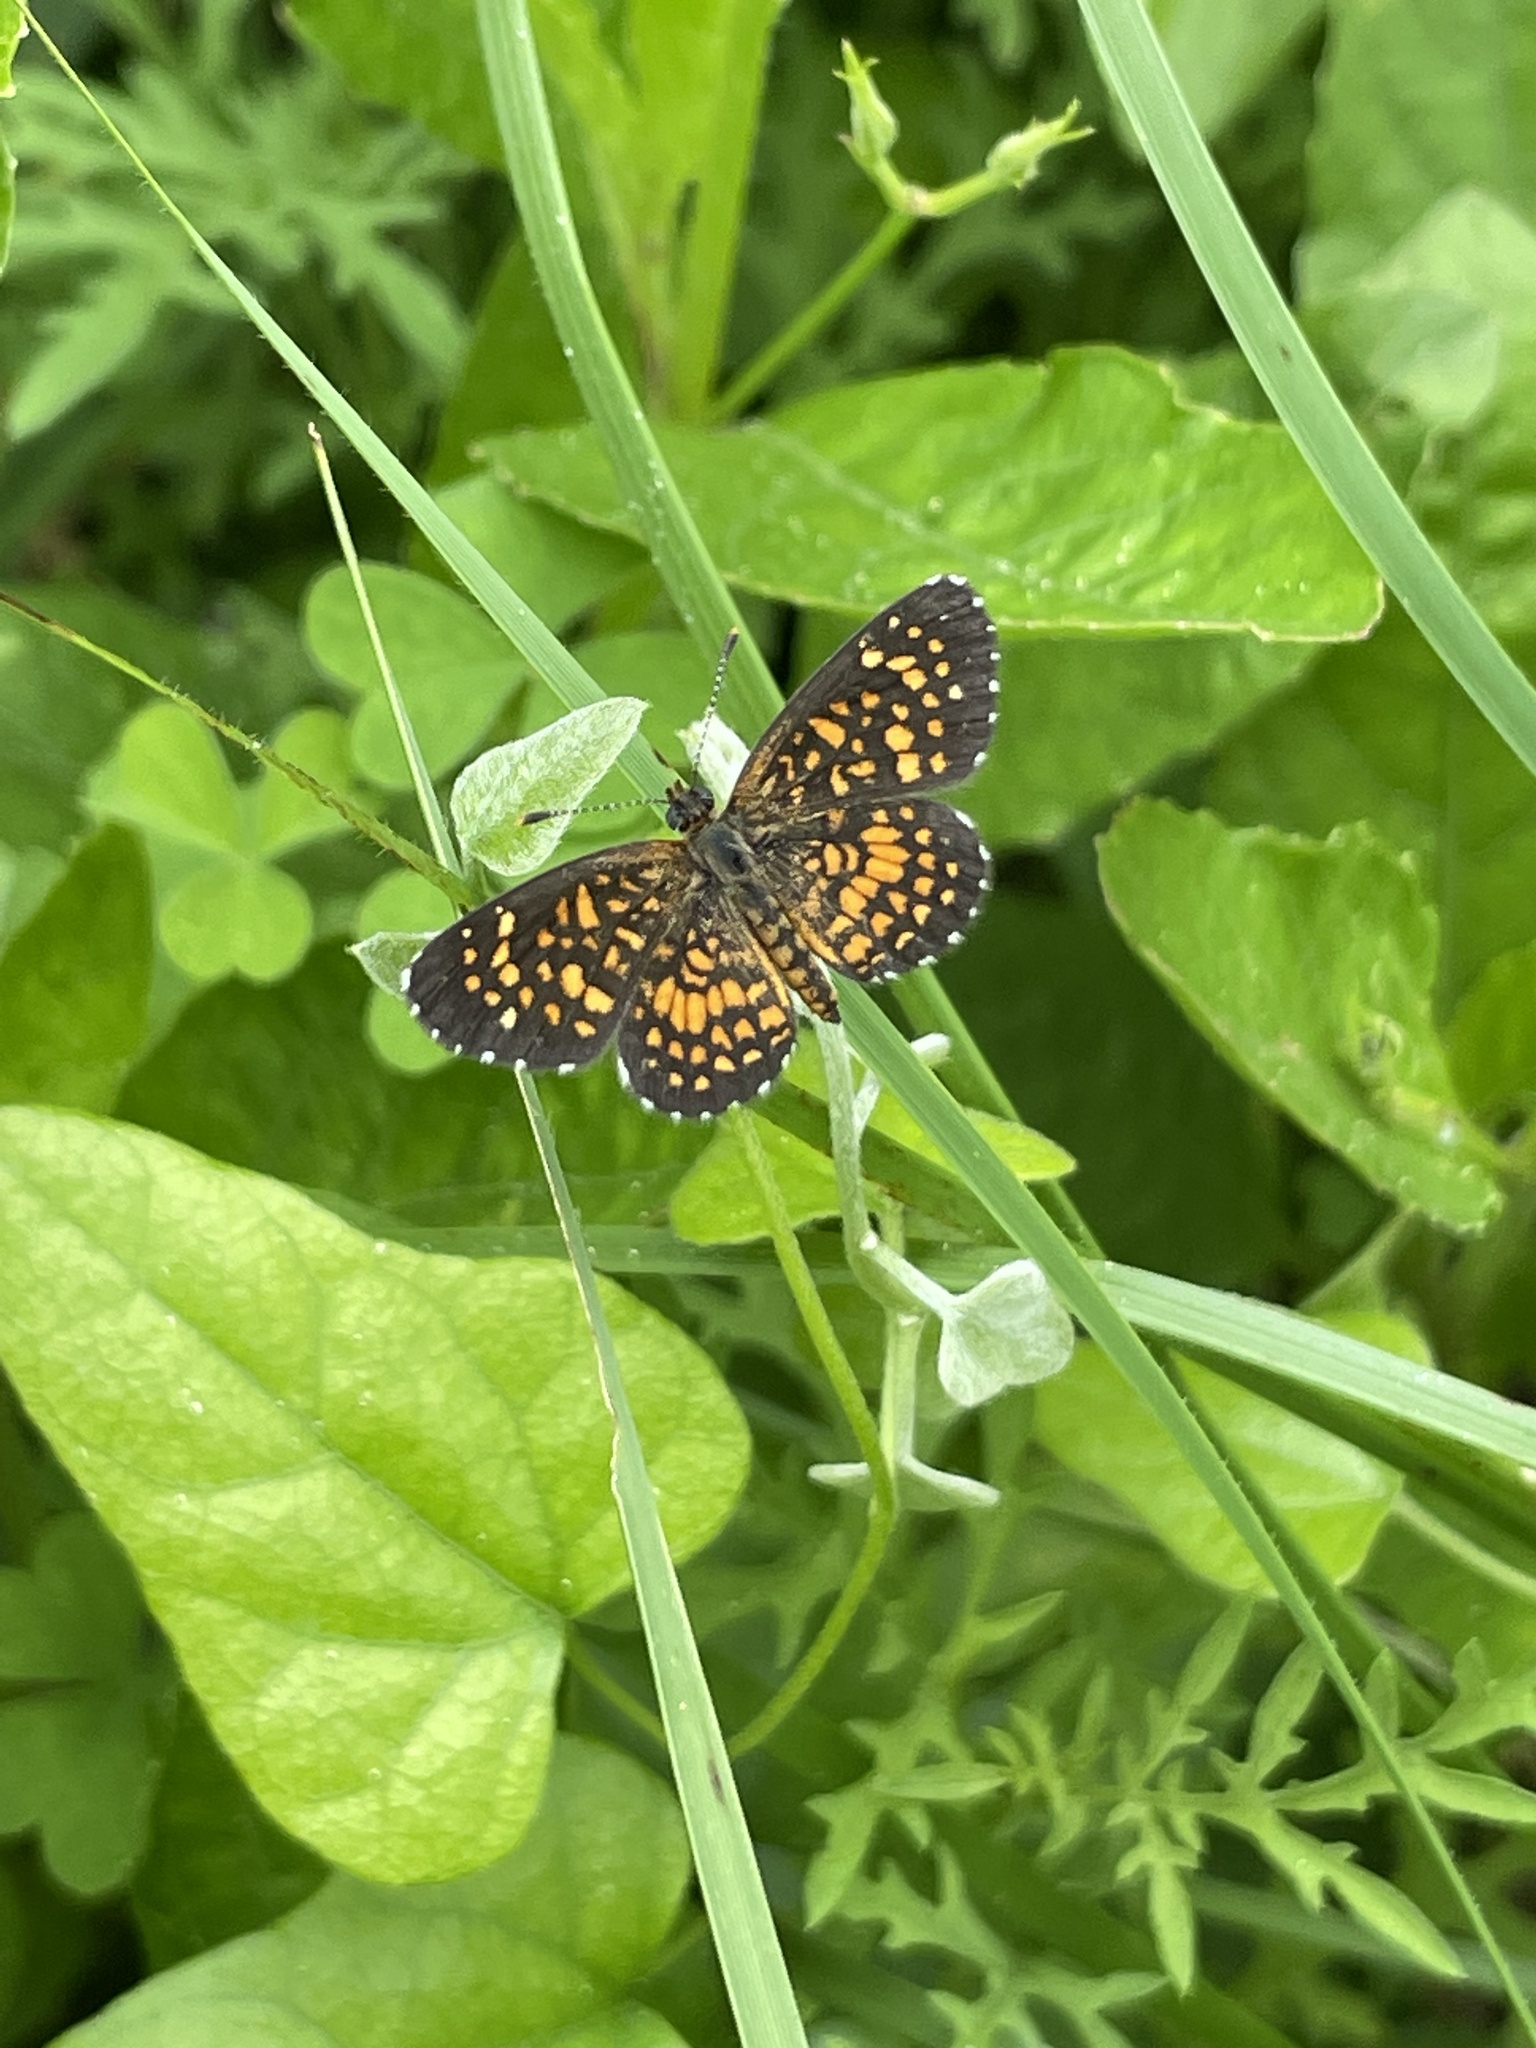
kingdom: Animalia
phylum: Arthropoda
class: Insecta
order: Lepidoptera
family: Nymphalidae
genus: Texola
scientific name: Texola elada
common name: Elada checkerspot
